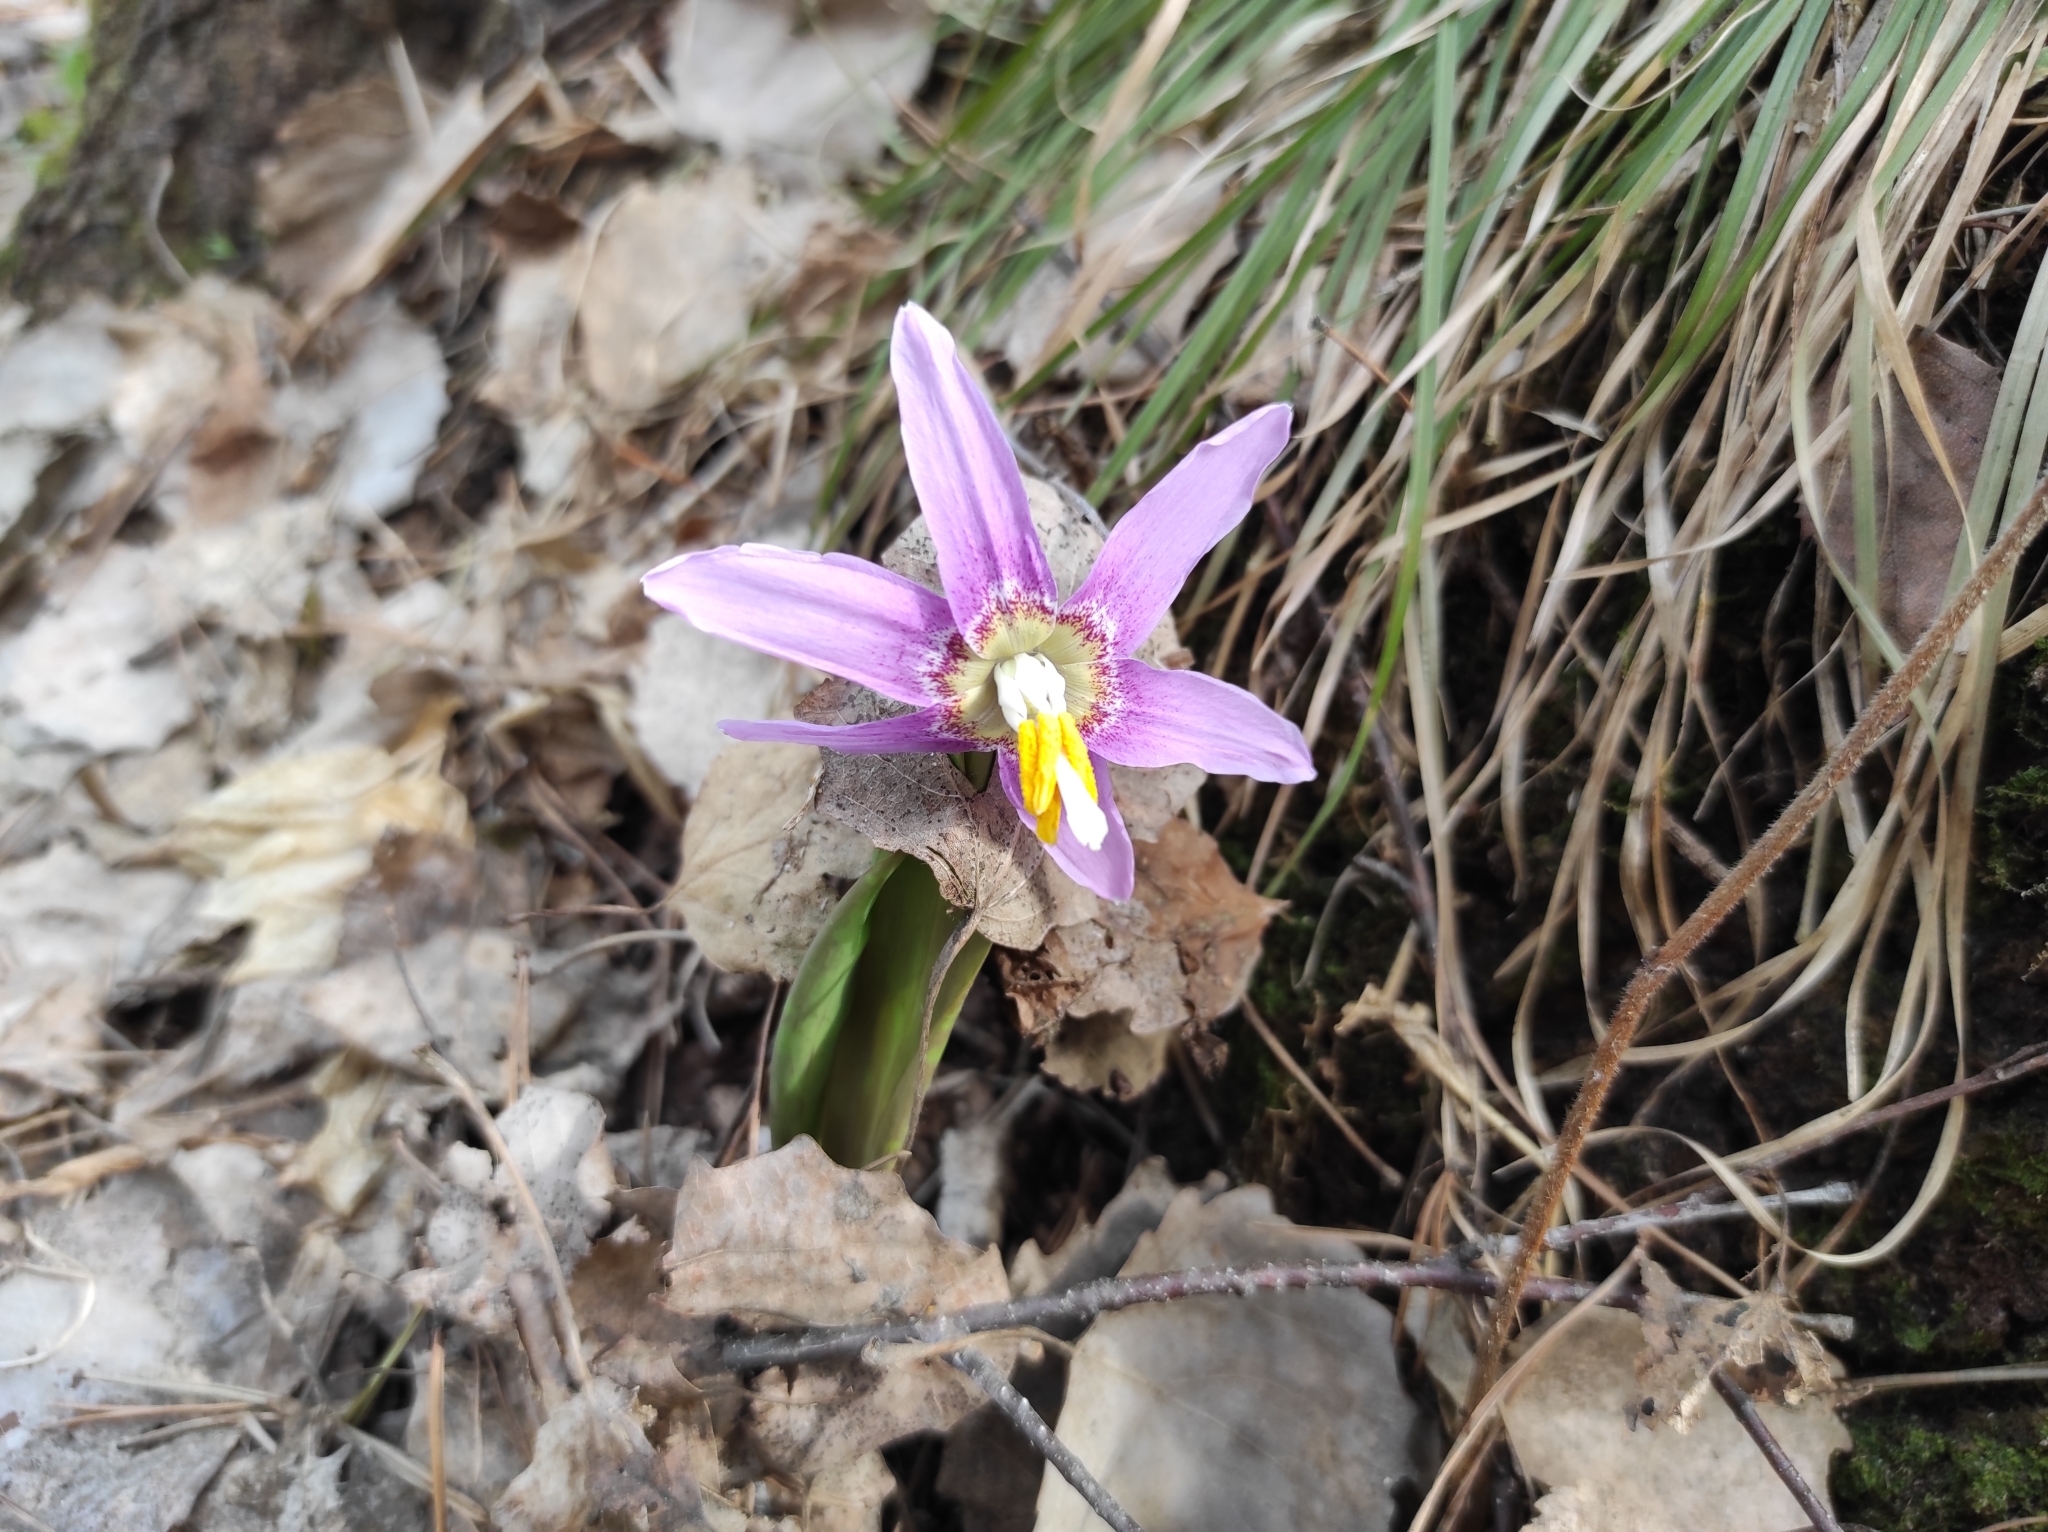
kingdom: Plantae
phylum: Tracheophyta
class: Liliopsida
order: Liliales
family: Liliaceae
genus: Erythronium
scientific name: Erythronium sibiricum
